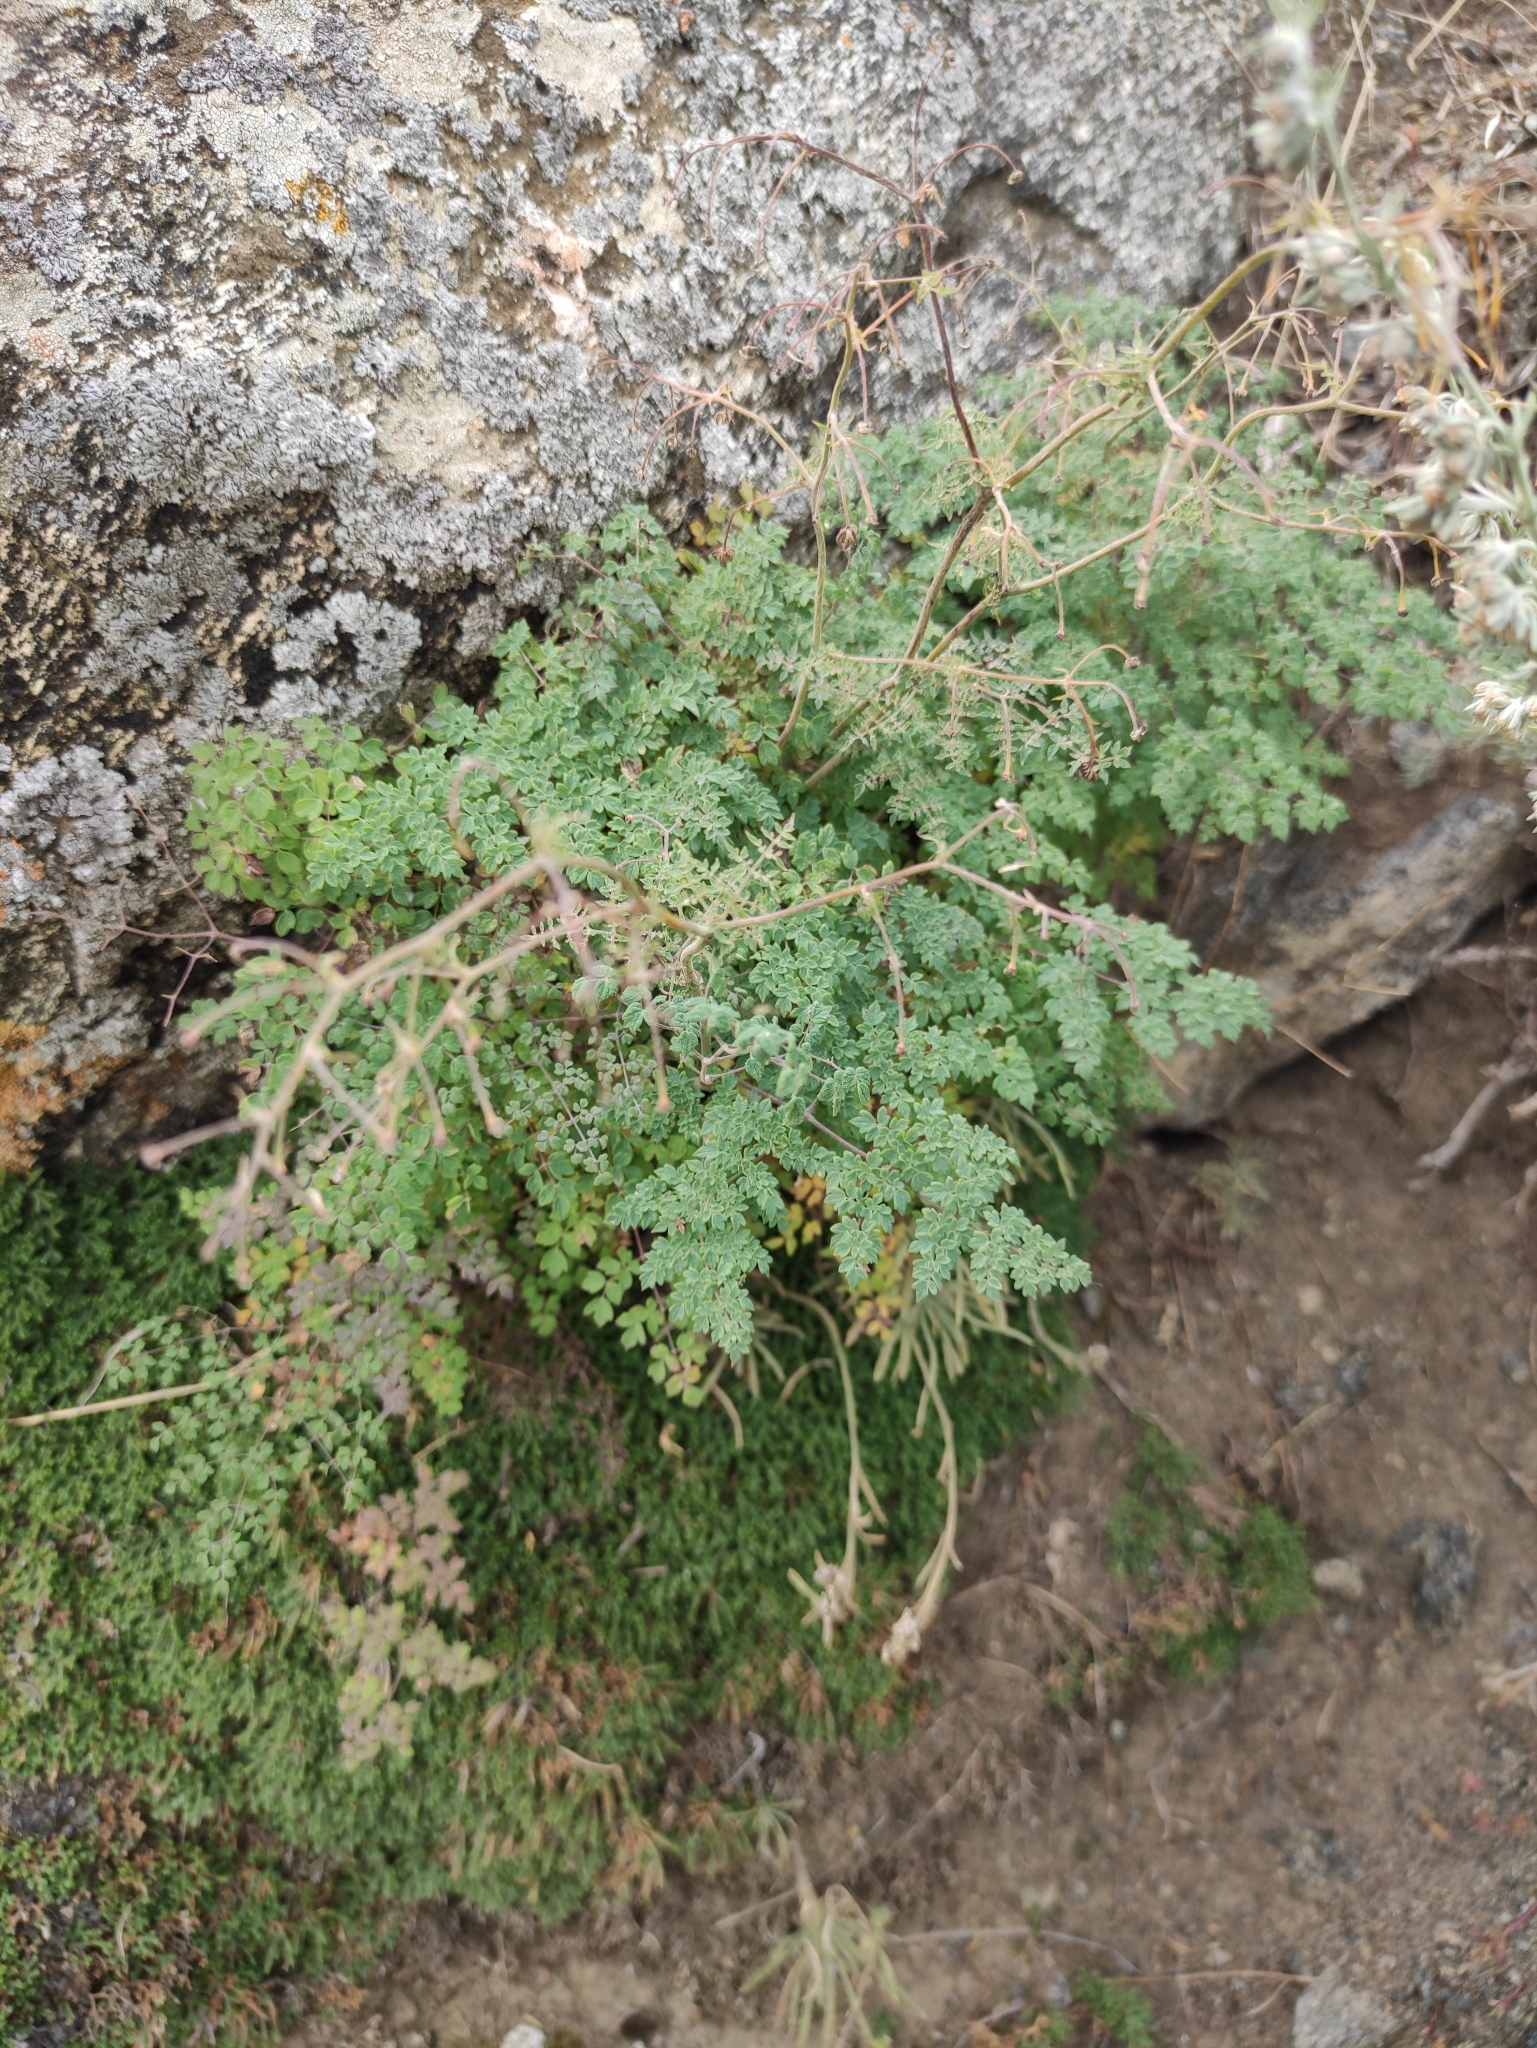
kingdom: Plantae
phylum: Tracheophyta
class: Magnoliopsida
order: Ranunculales
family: Ranunculaceae
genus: Thalictrum
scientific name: Thalictrum foetidum
